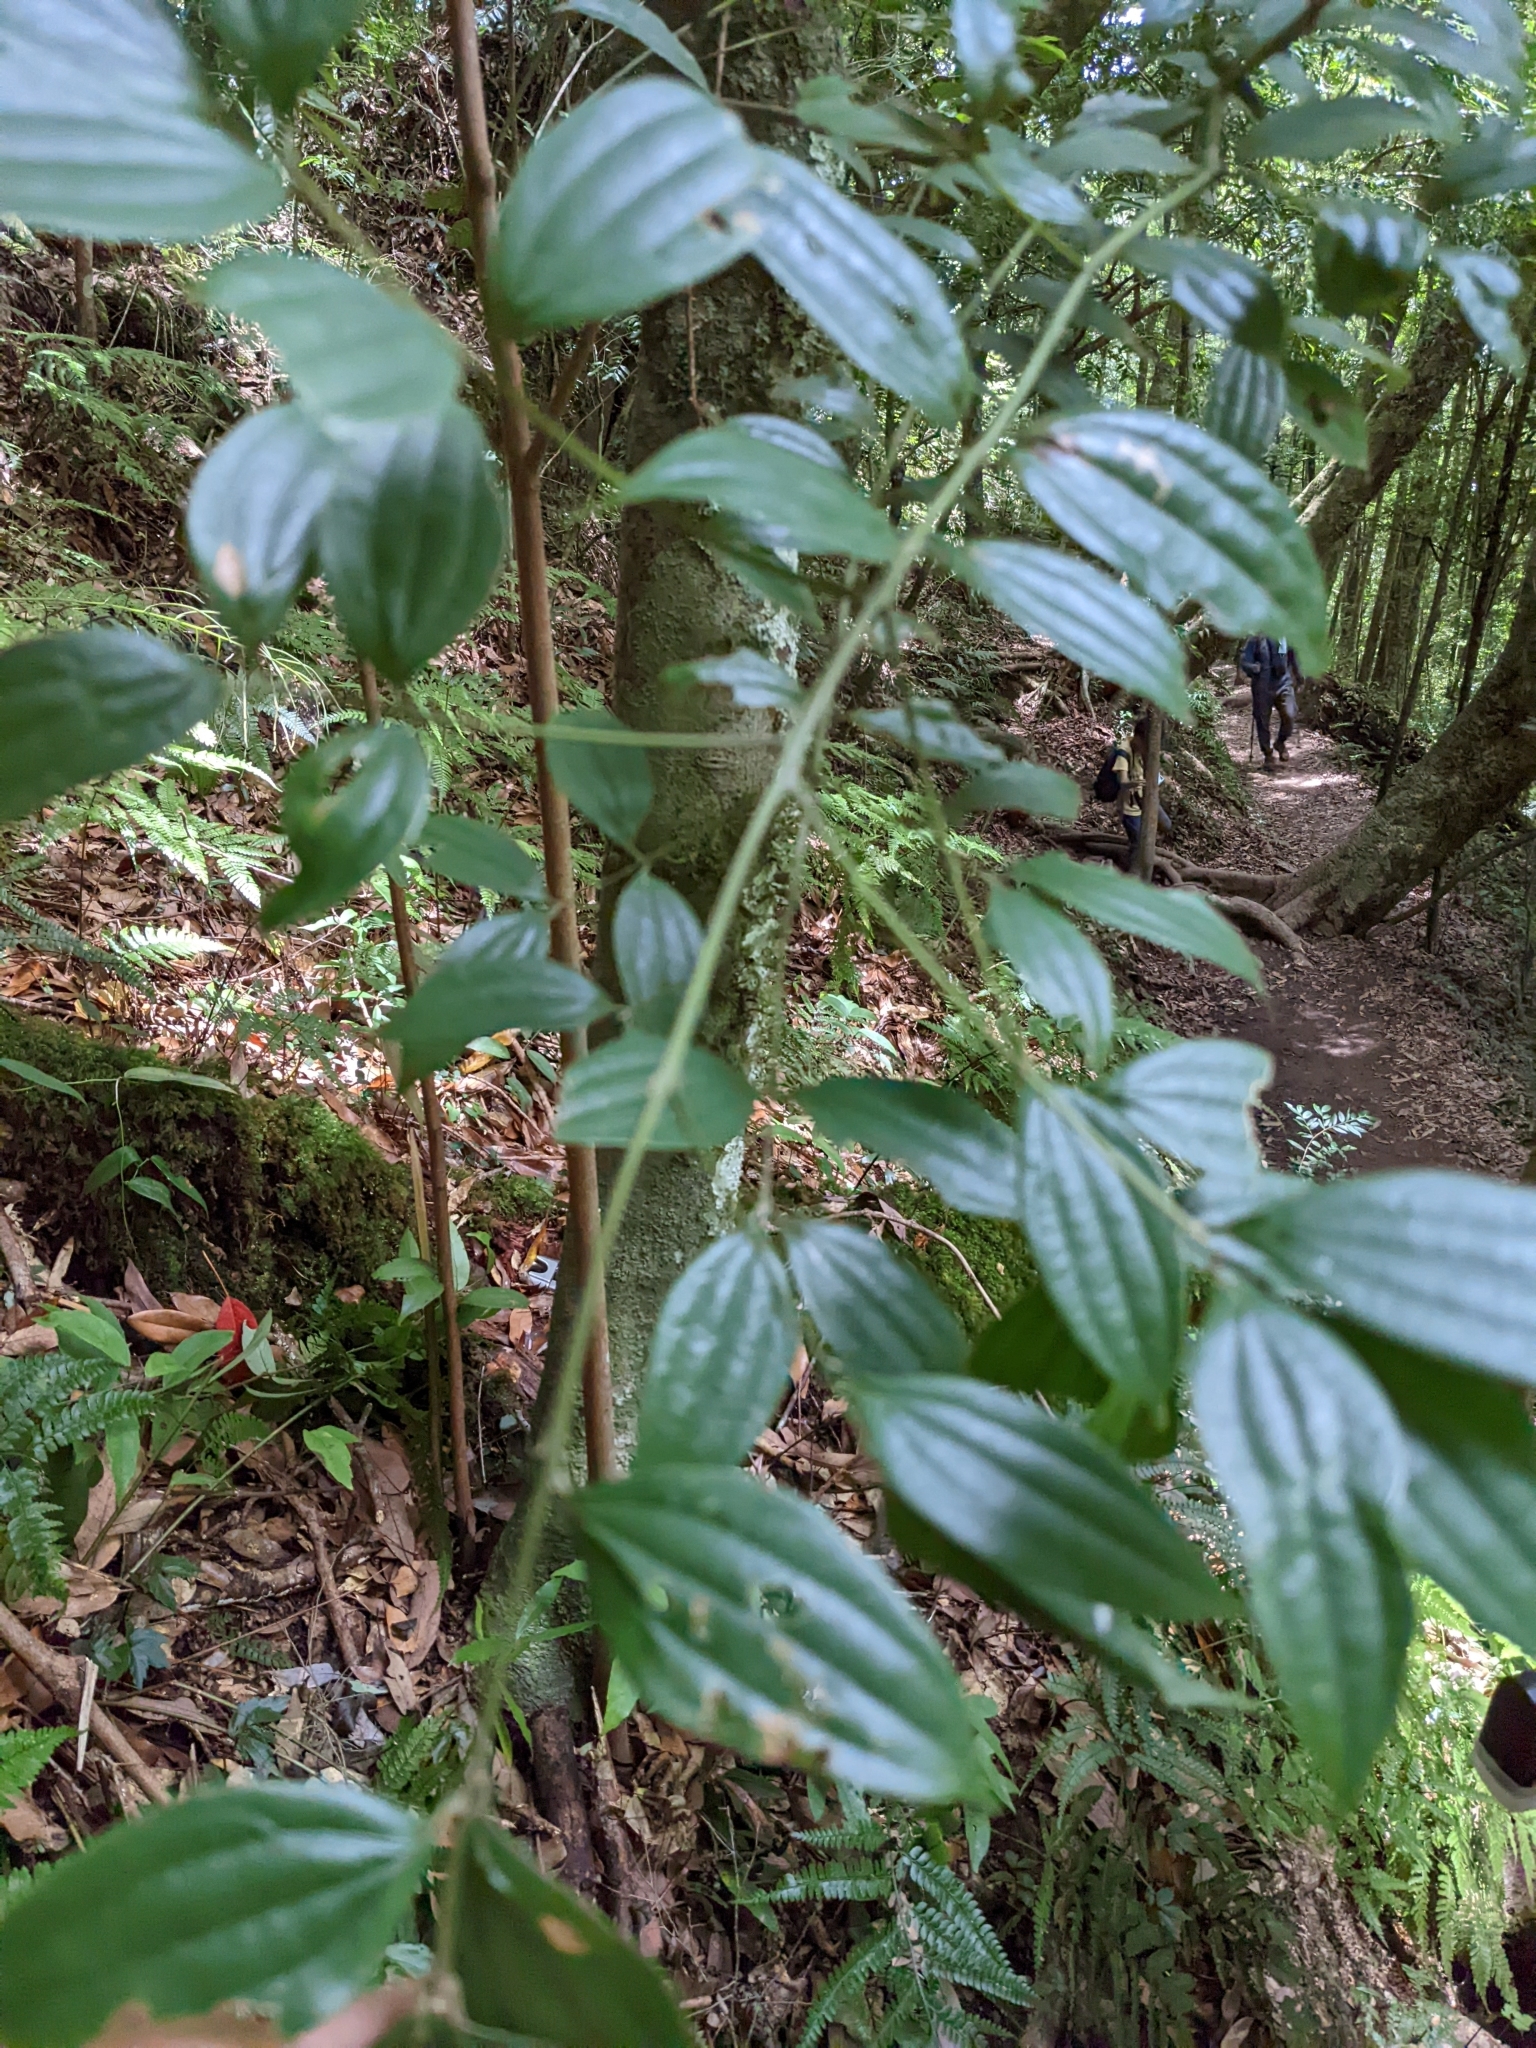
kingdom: Plantae
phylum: Tracheophyta
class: Magnoliopsida
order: Laurales
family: Lauraceae
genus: Cinnamomum
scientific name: Cinnamomum subavenium
